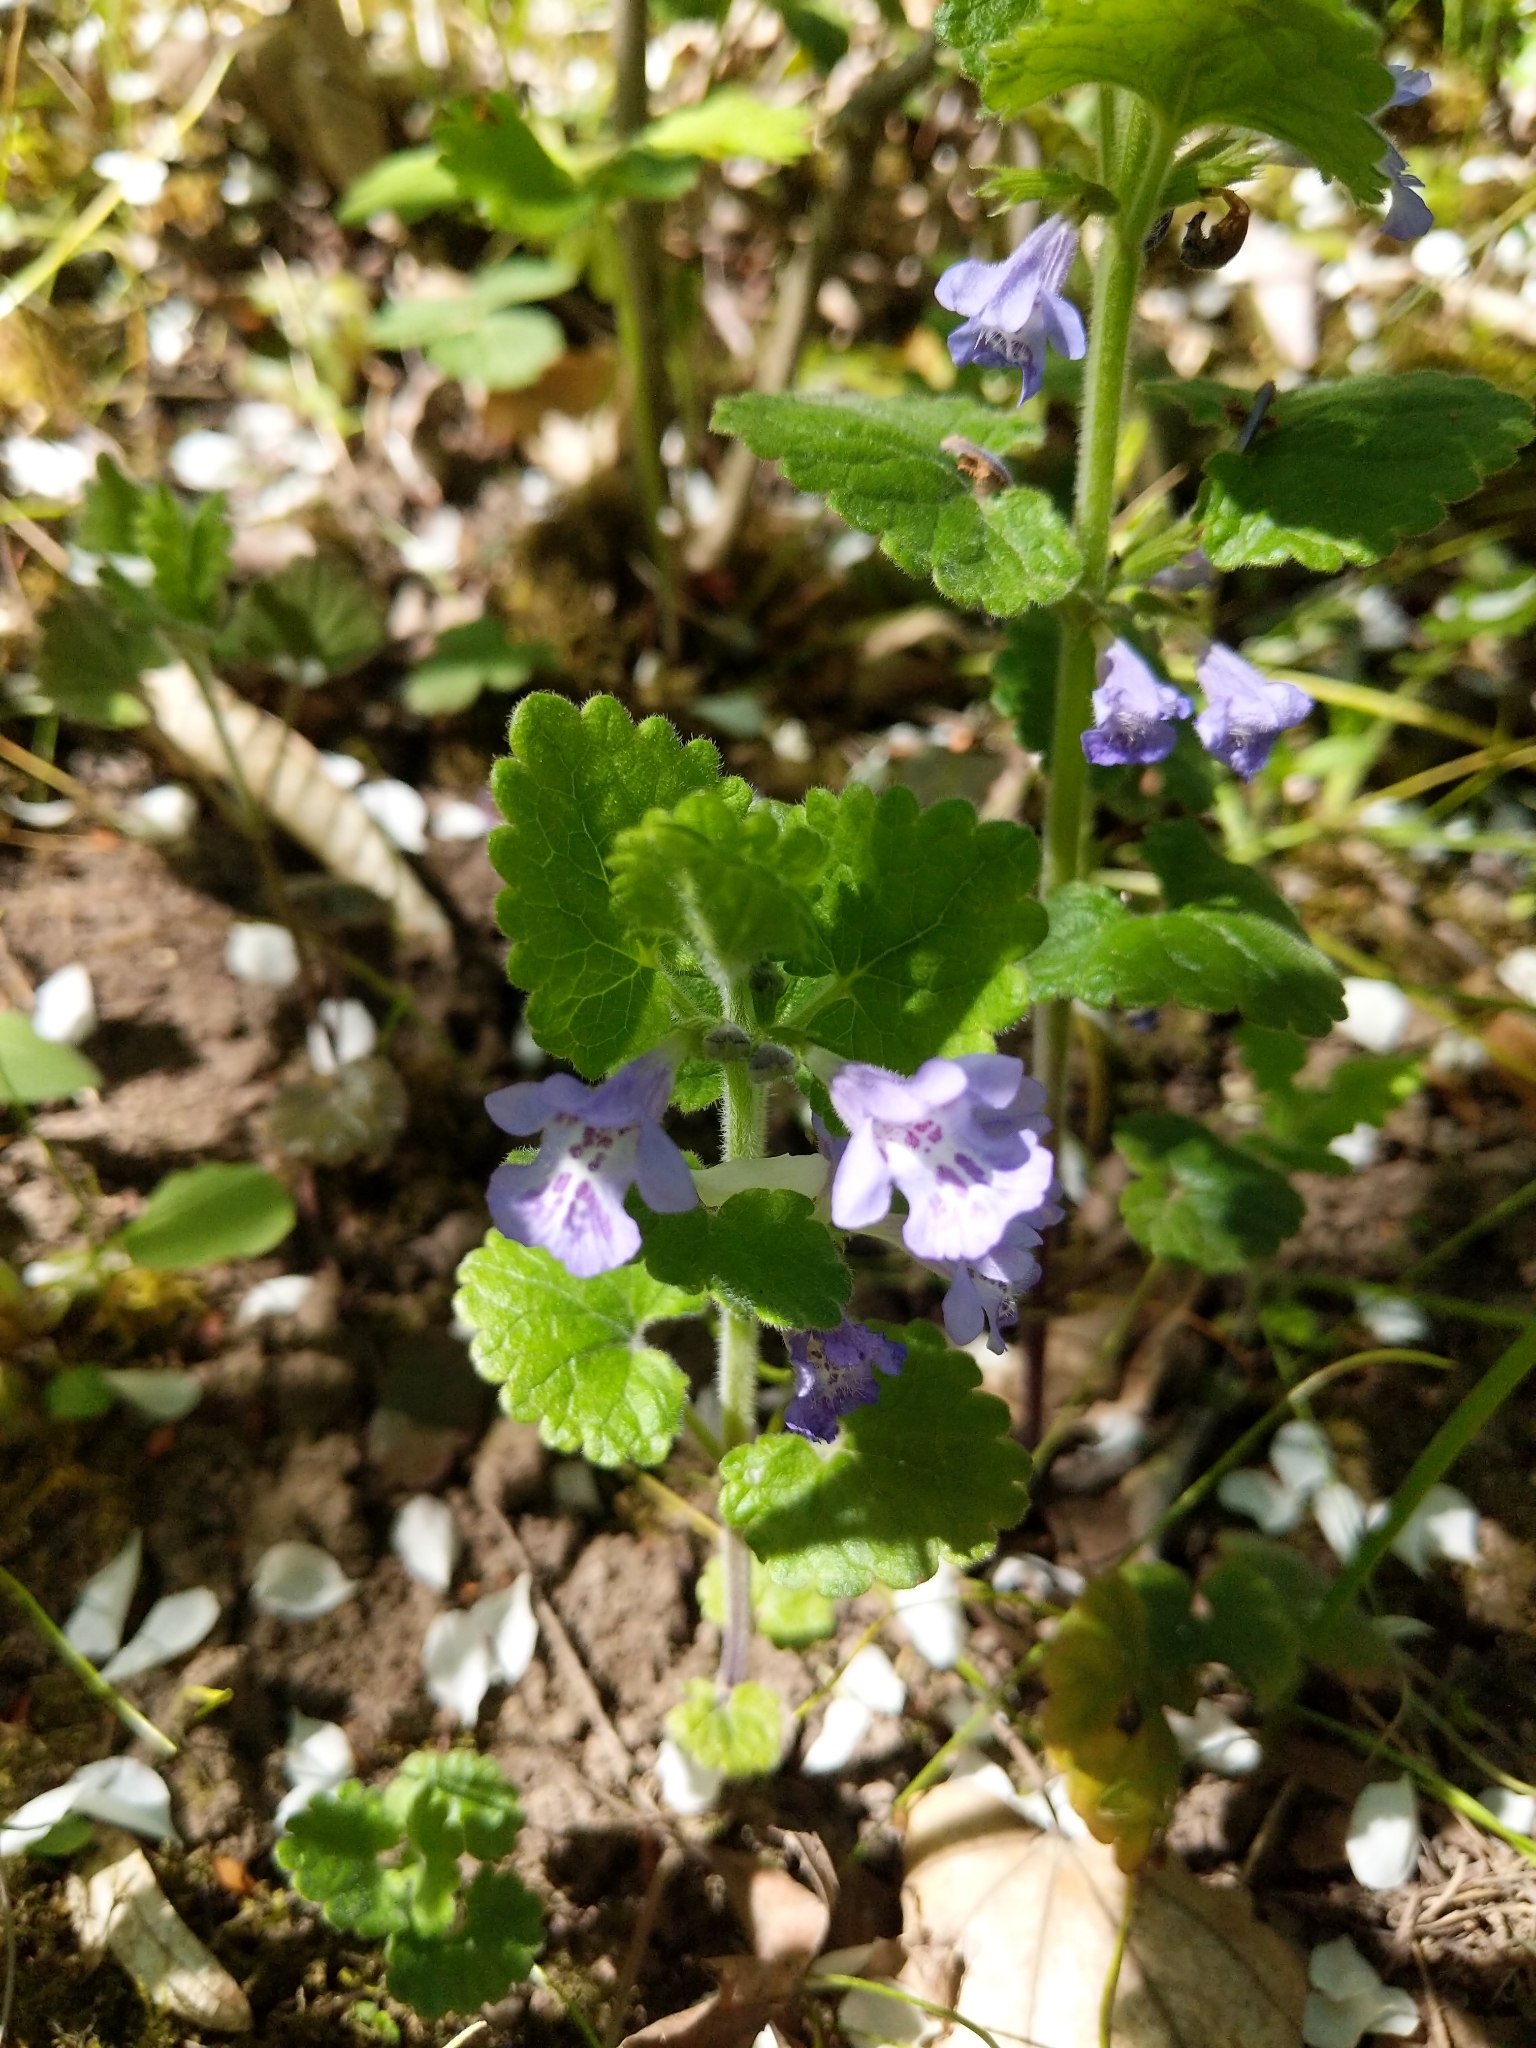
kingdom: Plantae
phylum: Tracheophyta
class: Magnoliopsida
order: Lamiales
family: Lamiaceae
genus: Glechoma
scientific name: Glechoma hederacea
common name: Ground ivy
